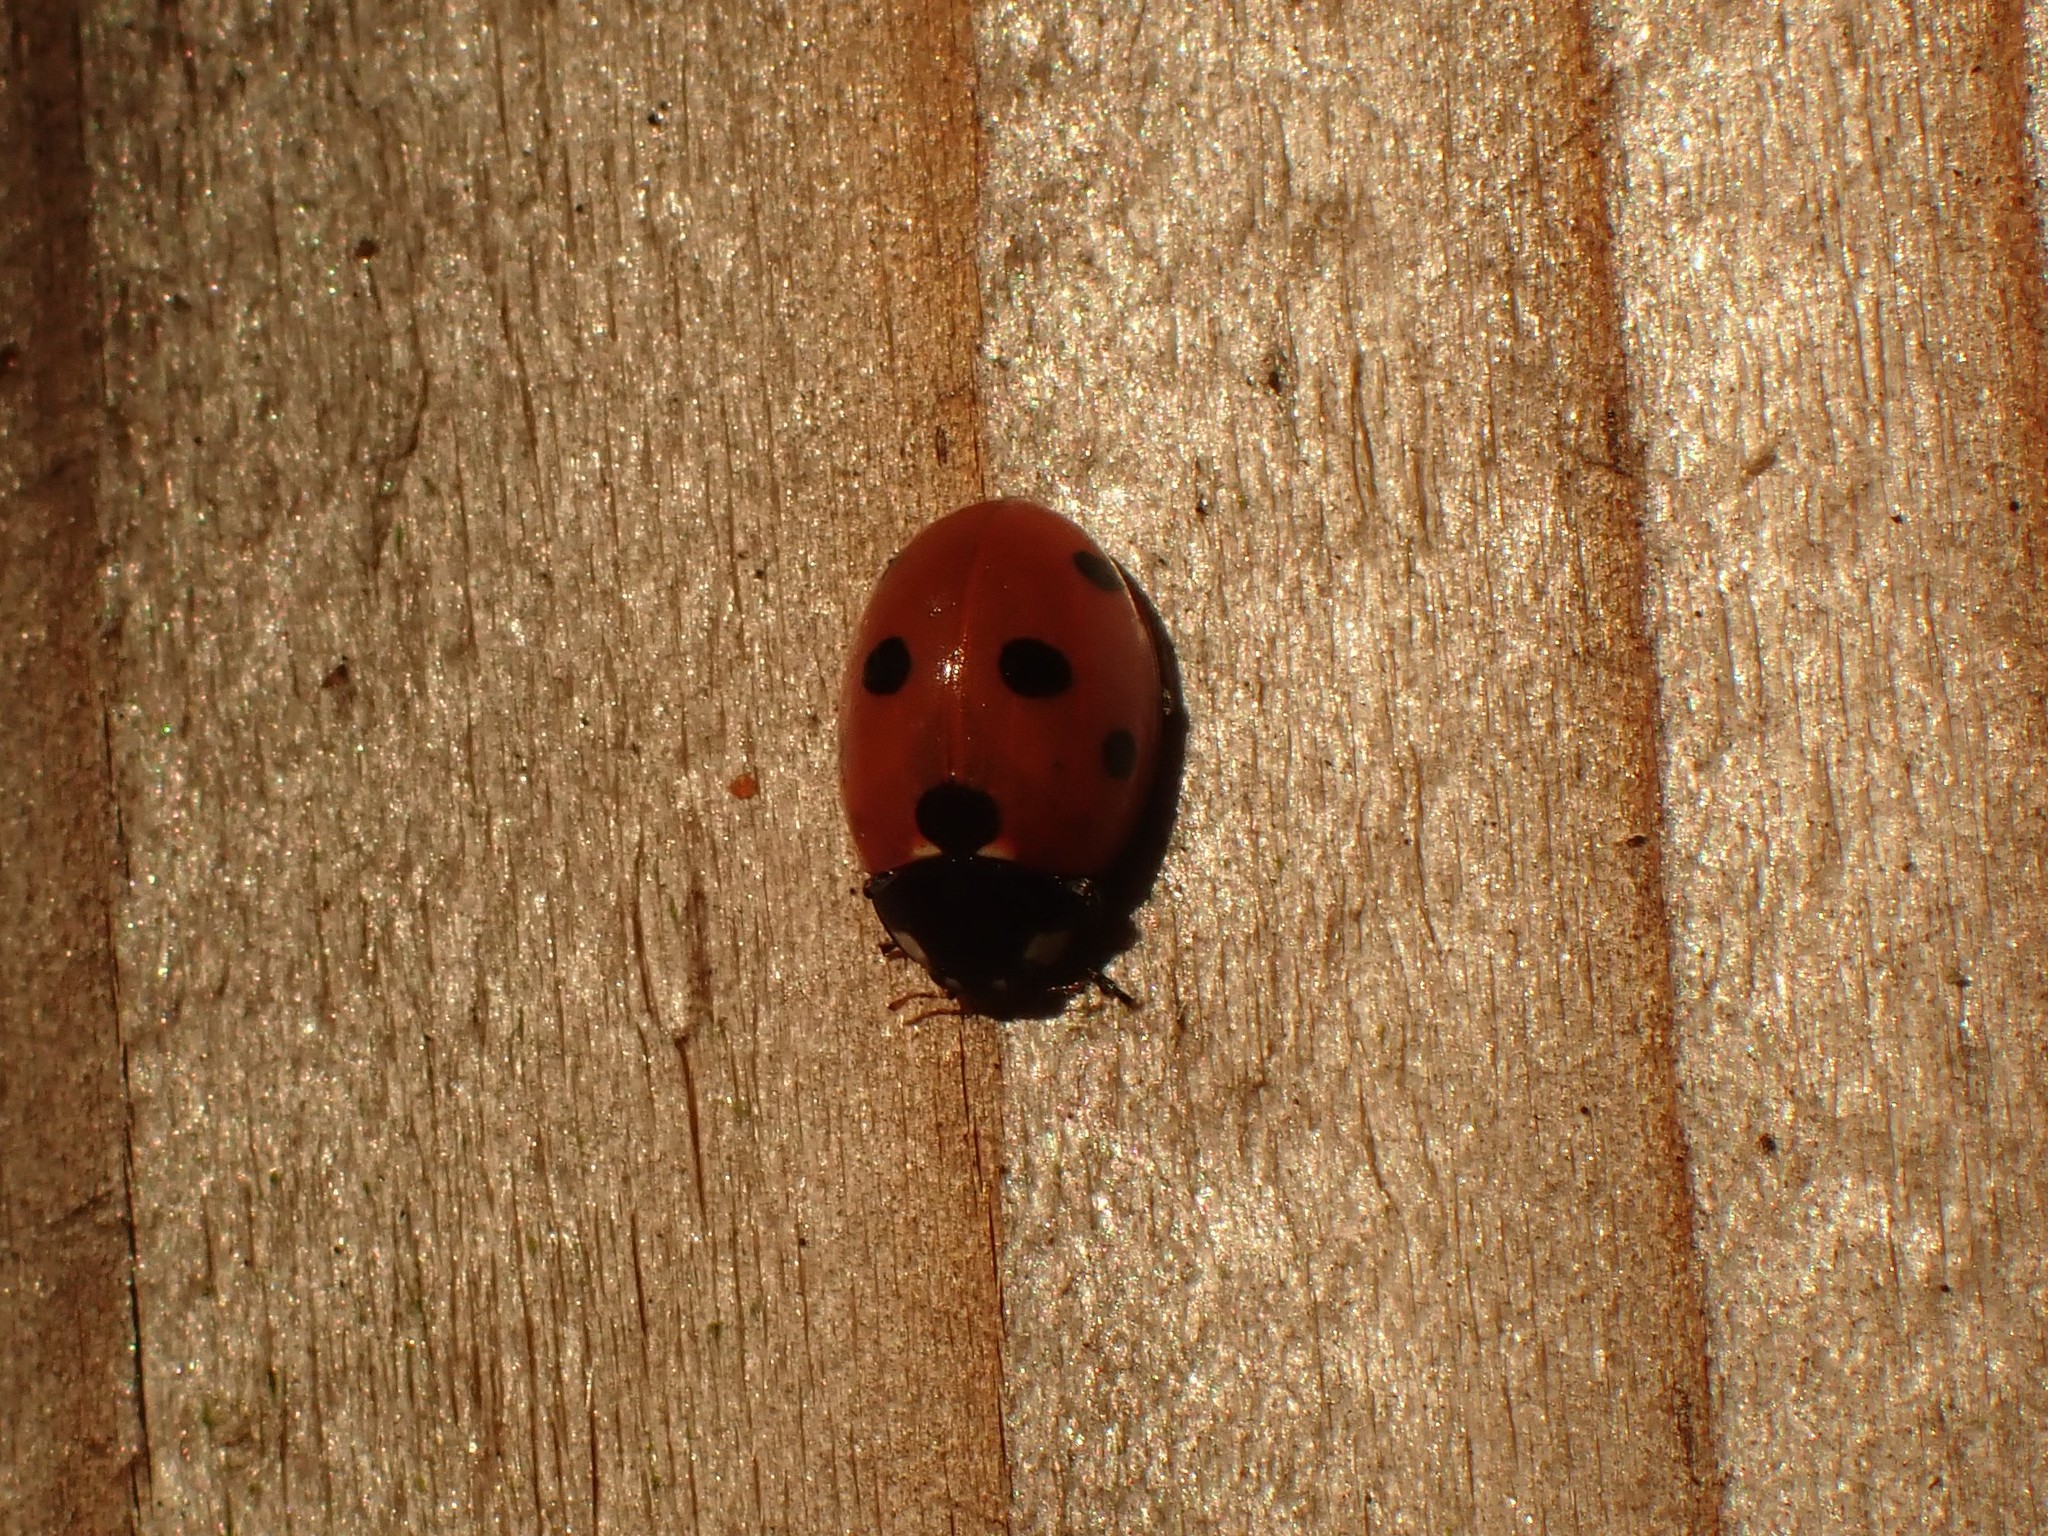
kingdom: Animalia
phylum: Arthropoda
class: Insecta
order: Coleoptera
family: Coccinellidae
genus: Coccinella
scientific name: Coccinella septempunctata
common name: Sevenspotted lady beetle
